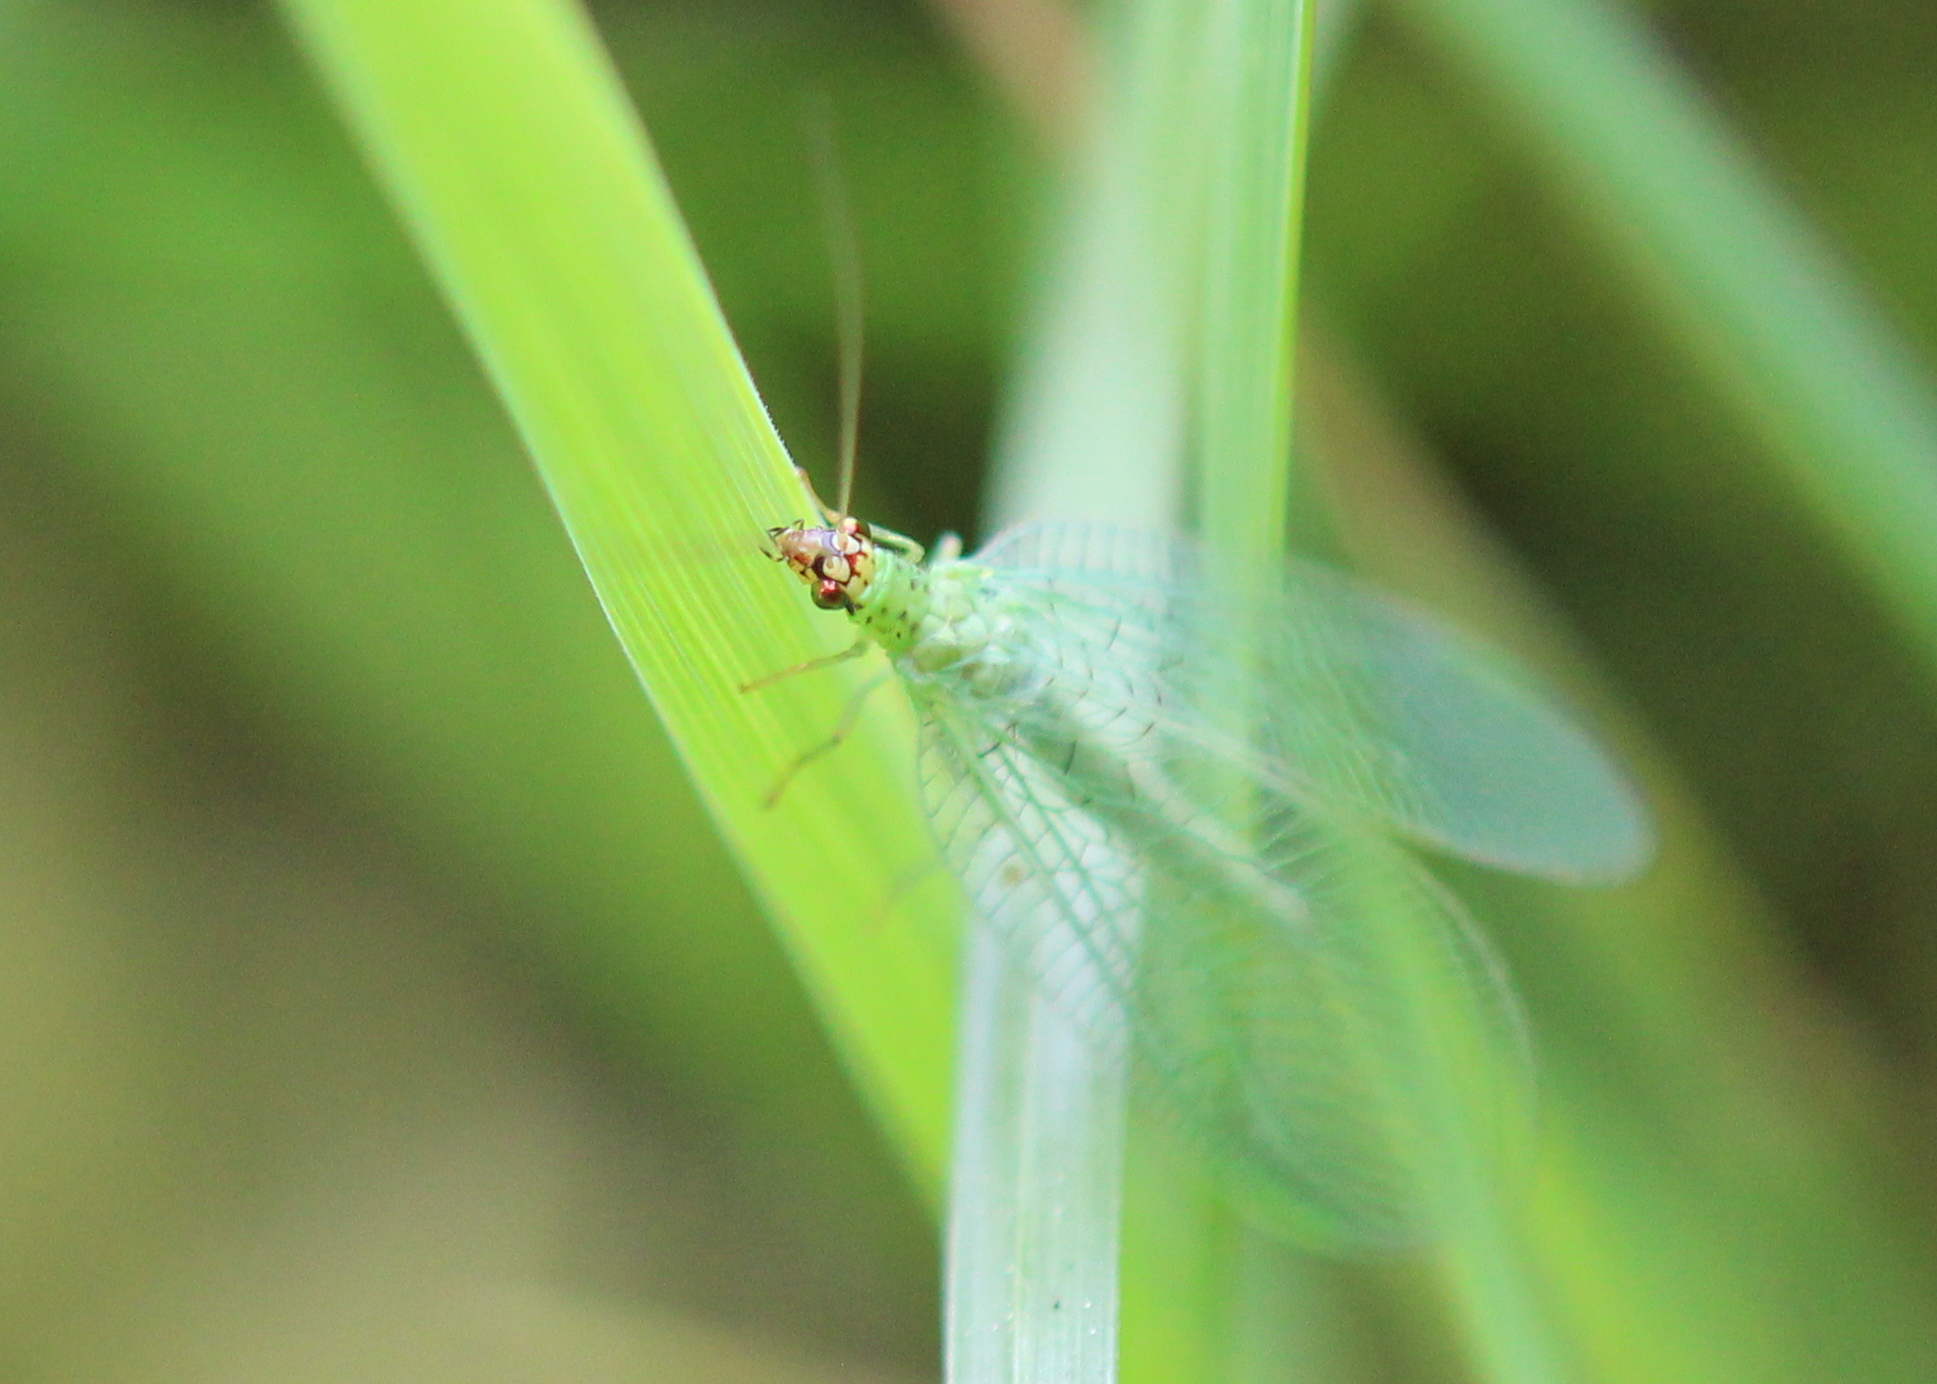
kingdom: Animalia
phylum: Arthropoda
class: Insecta
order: Neuroptera
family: Chrysopidae
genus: Chrysopa
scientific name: Chrysopa oculata
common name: Golden-eyed lacewing
